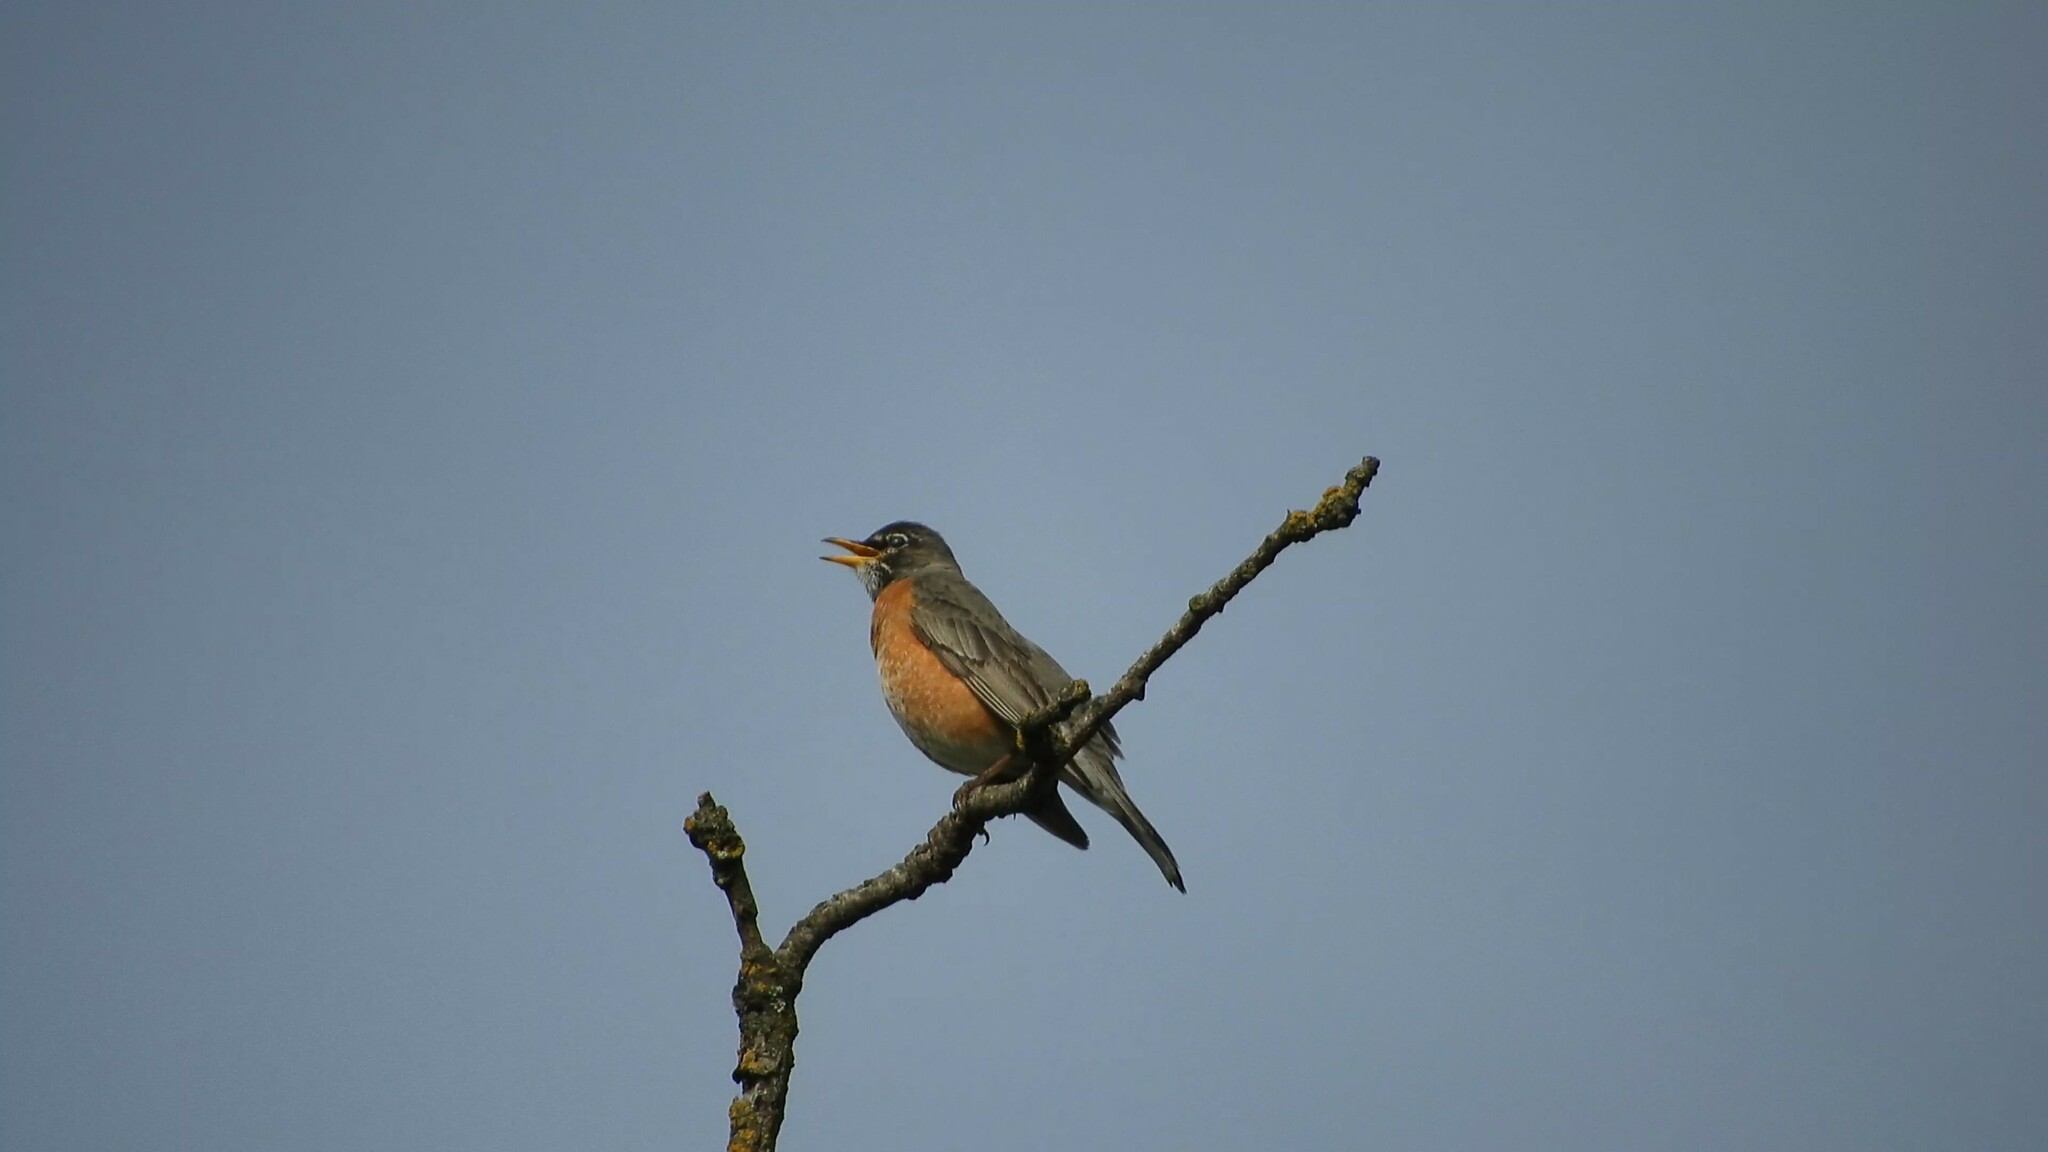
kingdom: Animalia
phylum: Chordata
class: Aves
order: Passeriformes
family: Turdidae
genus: Turdus
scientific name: Turdus migratorius
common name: American robin
